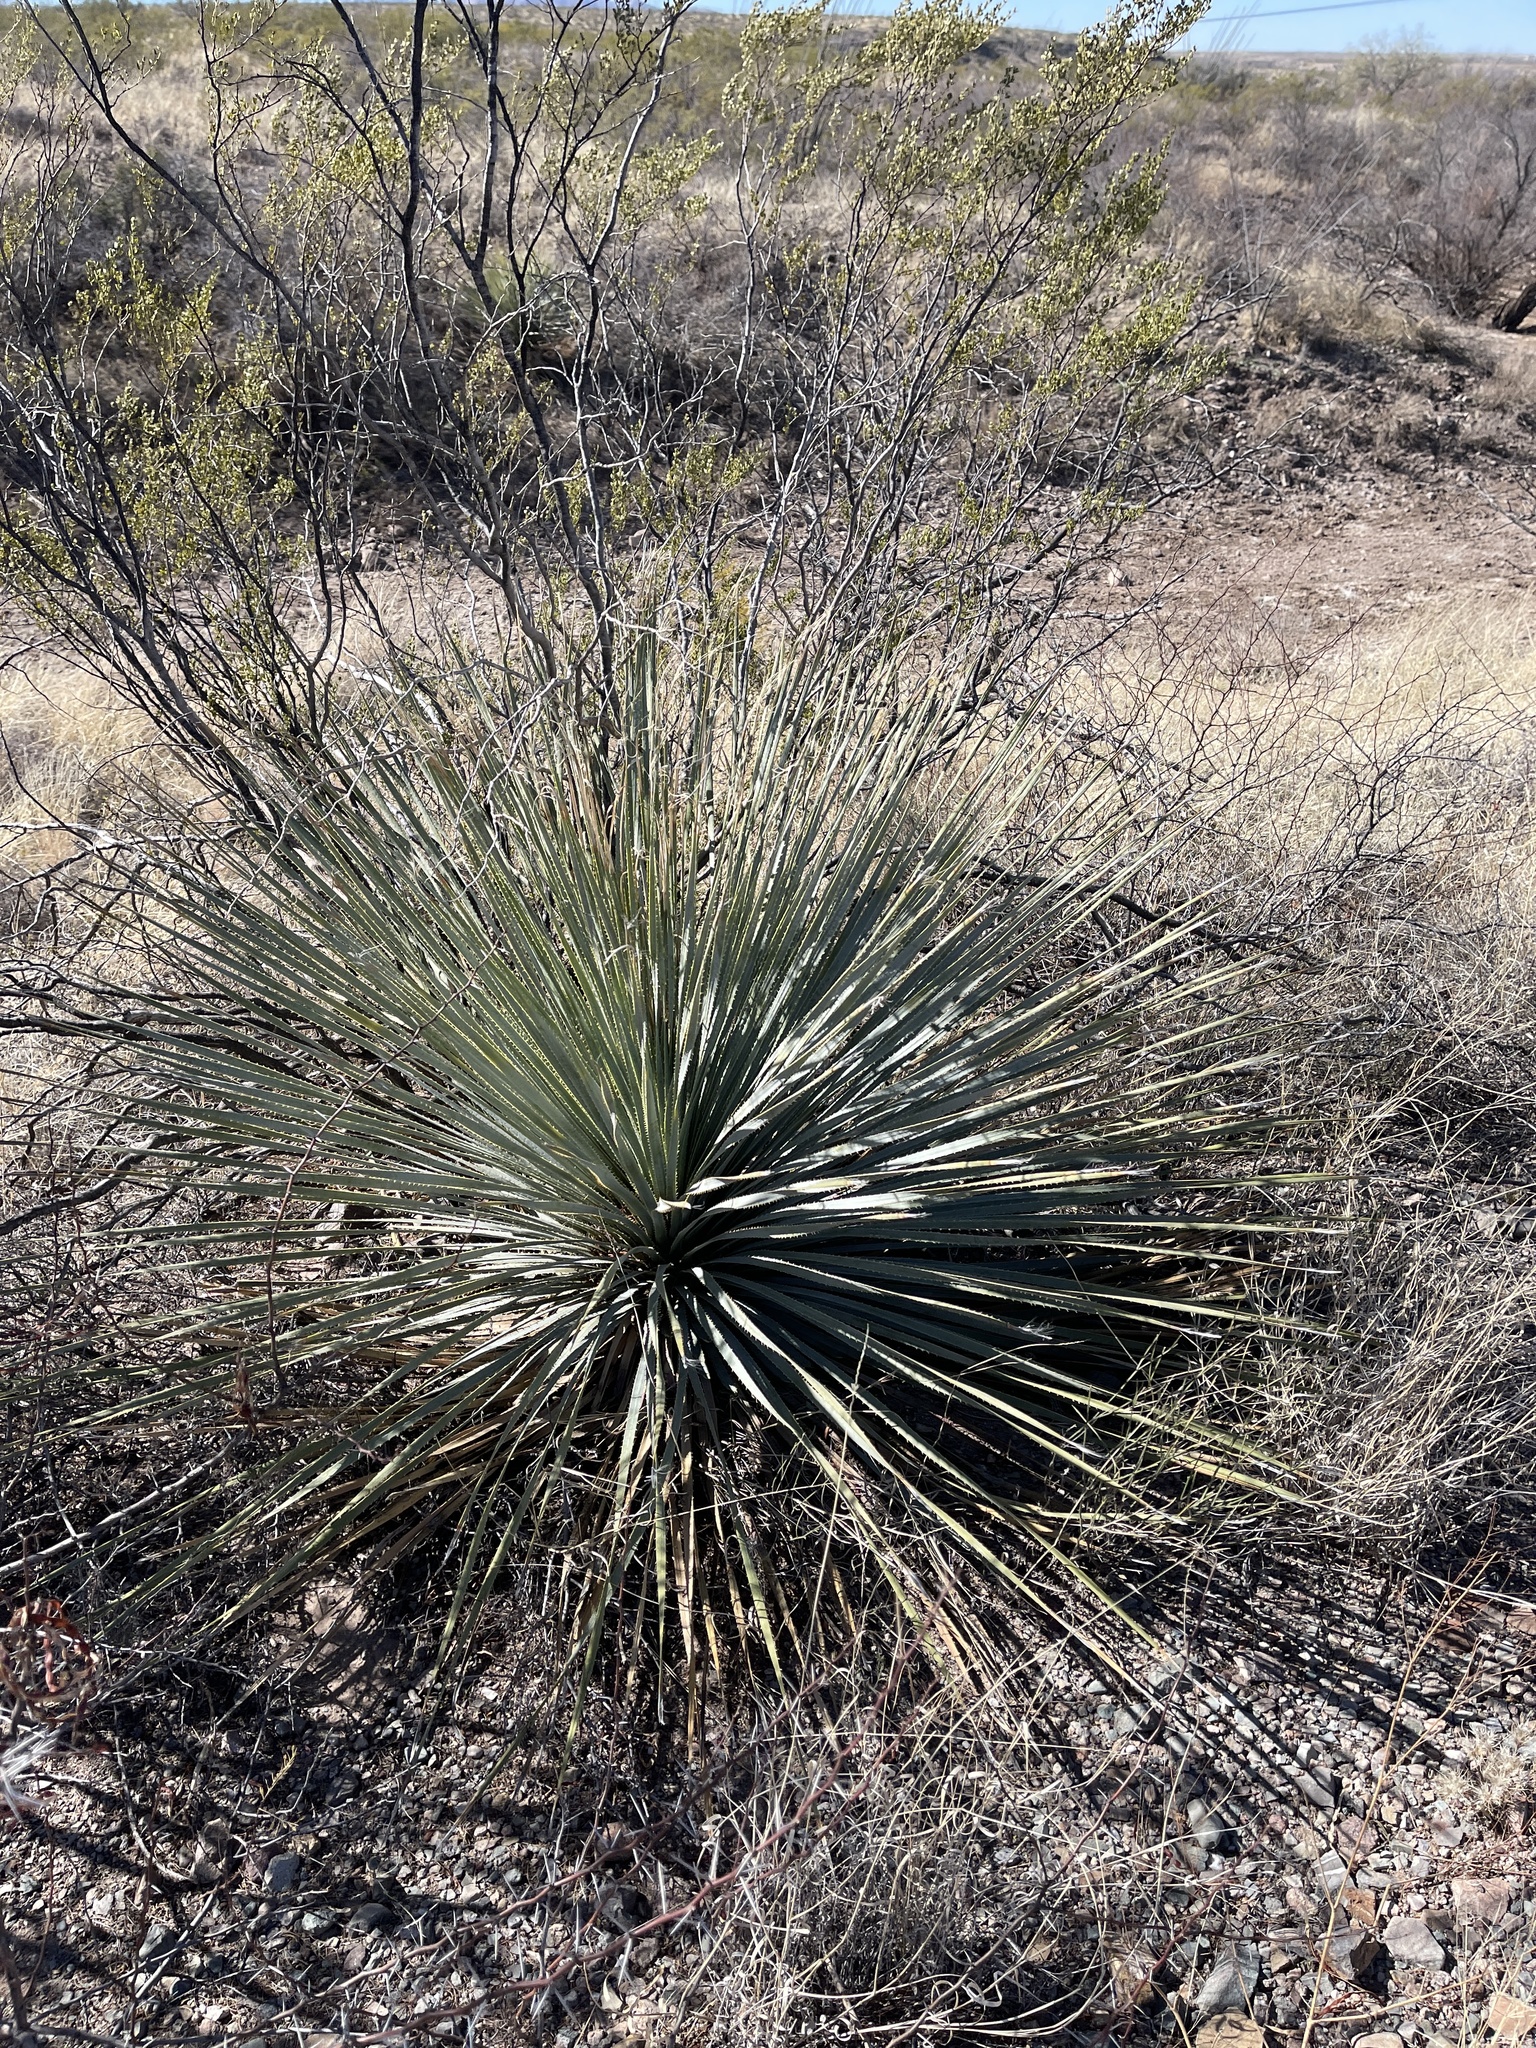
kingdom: Plantae
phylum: Tracheophyta
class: Liliopsida
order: Asparagales
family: Asparagaceae
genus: Dasylirion
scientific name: Dasylirion wheeleri
